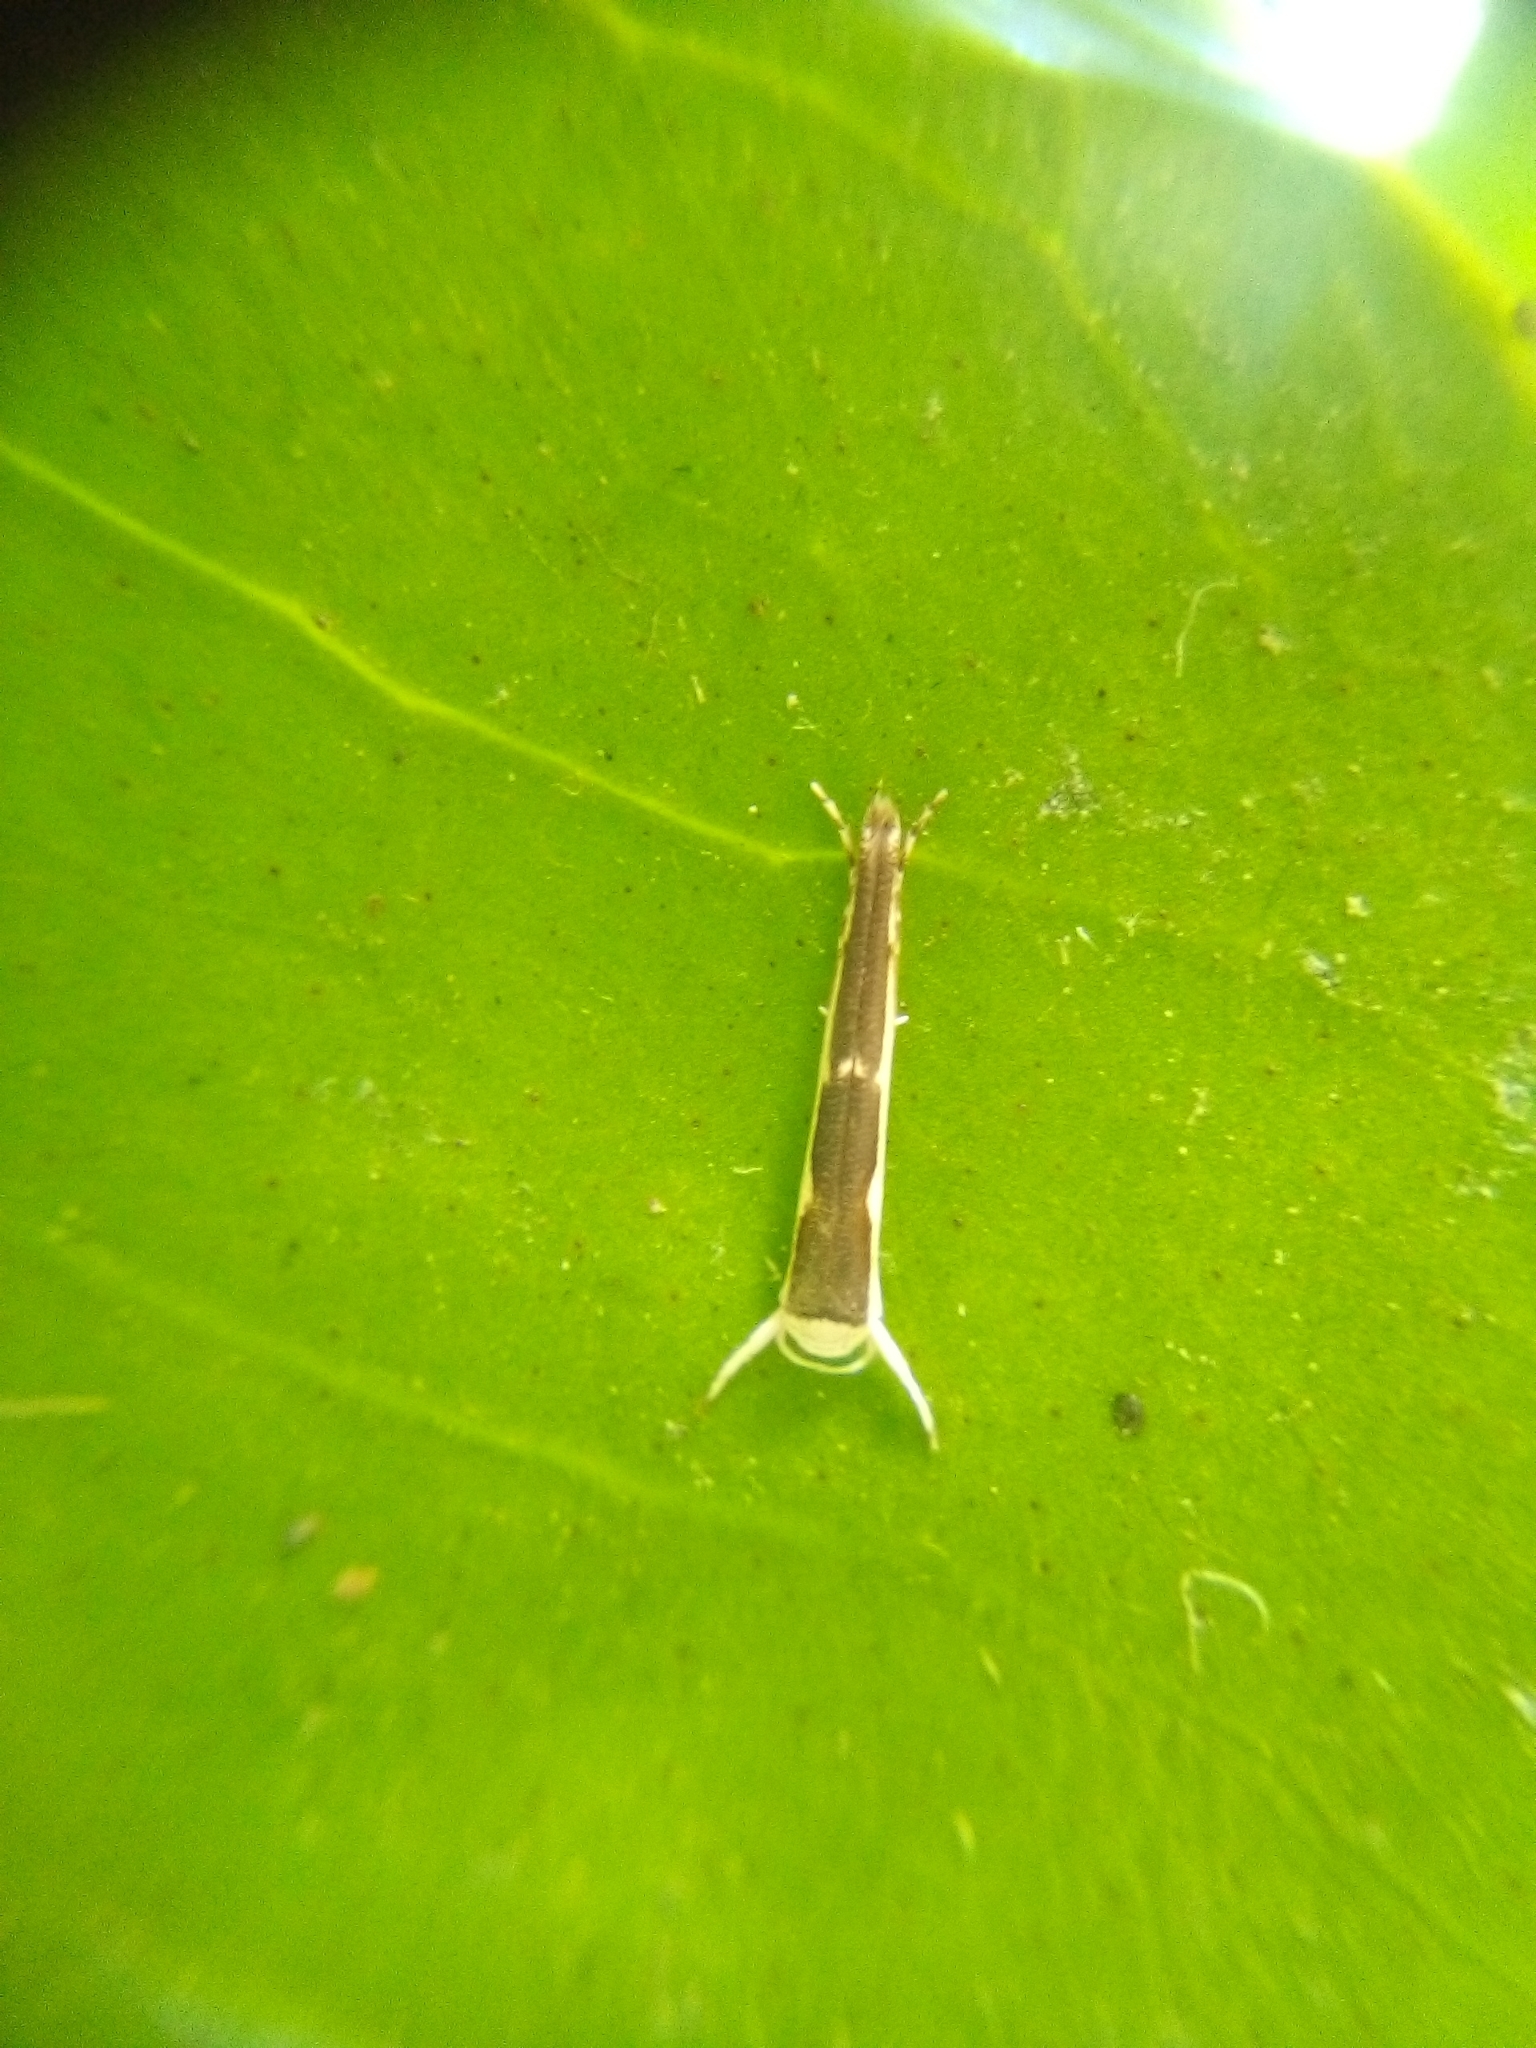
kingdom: Animalia
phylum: Arthropoda
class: Insecta
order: Lepidoptera
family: Roeslerstammiidae
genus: Vanicela
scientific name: Vanicela disjunctella
